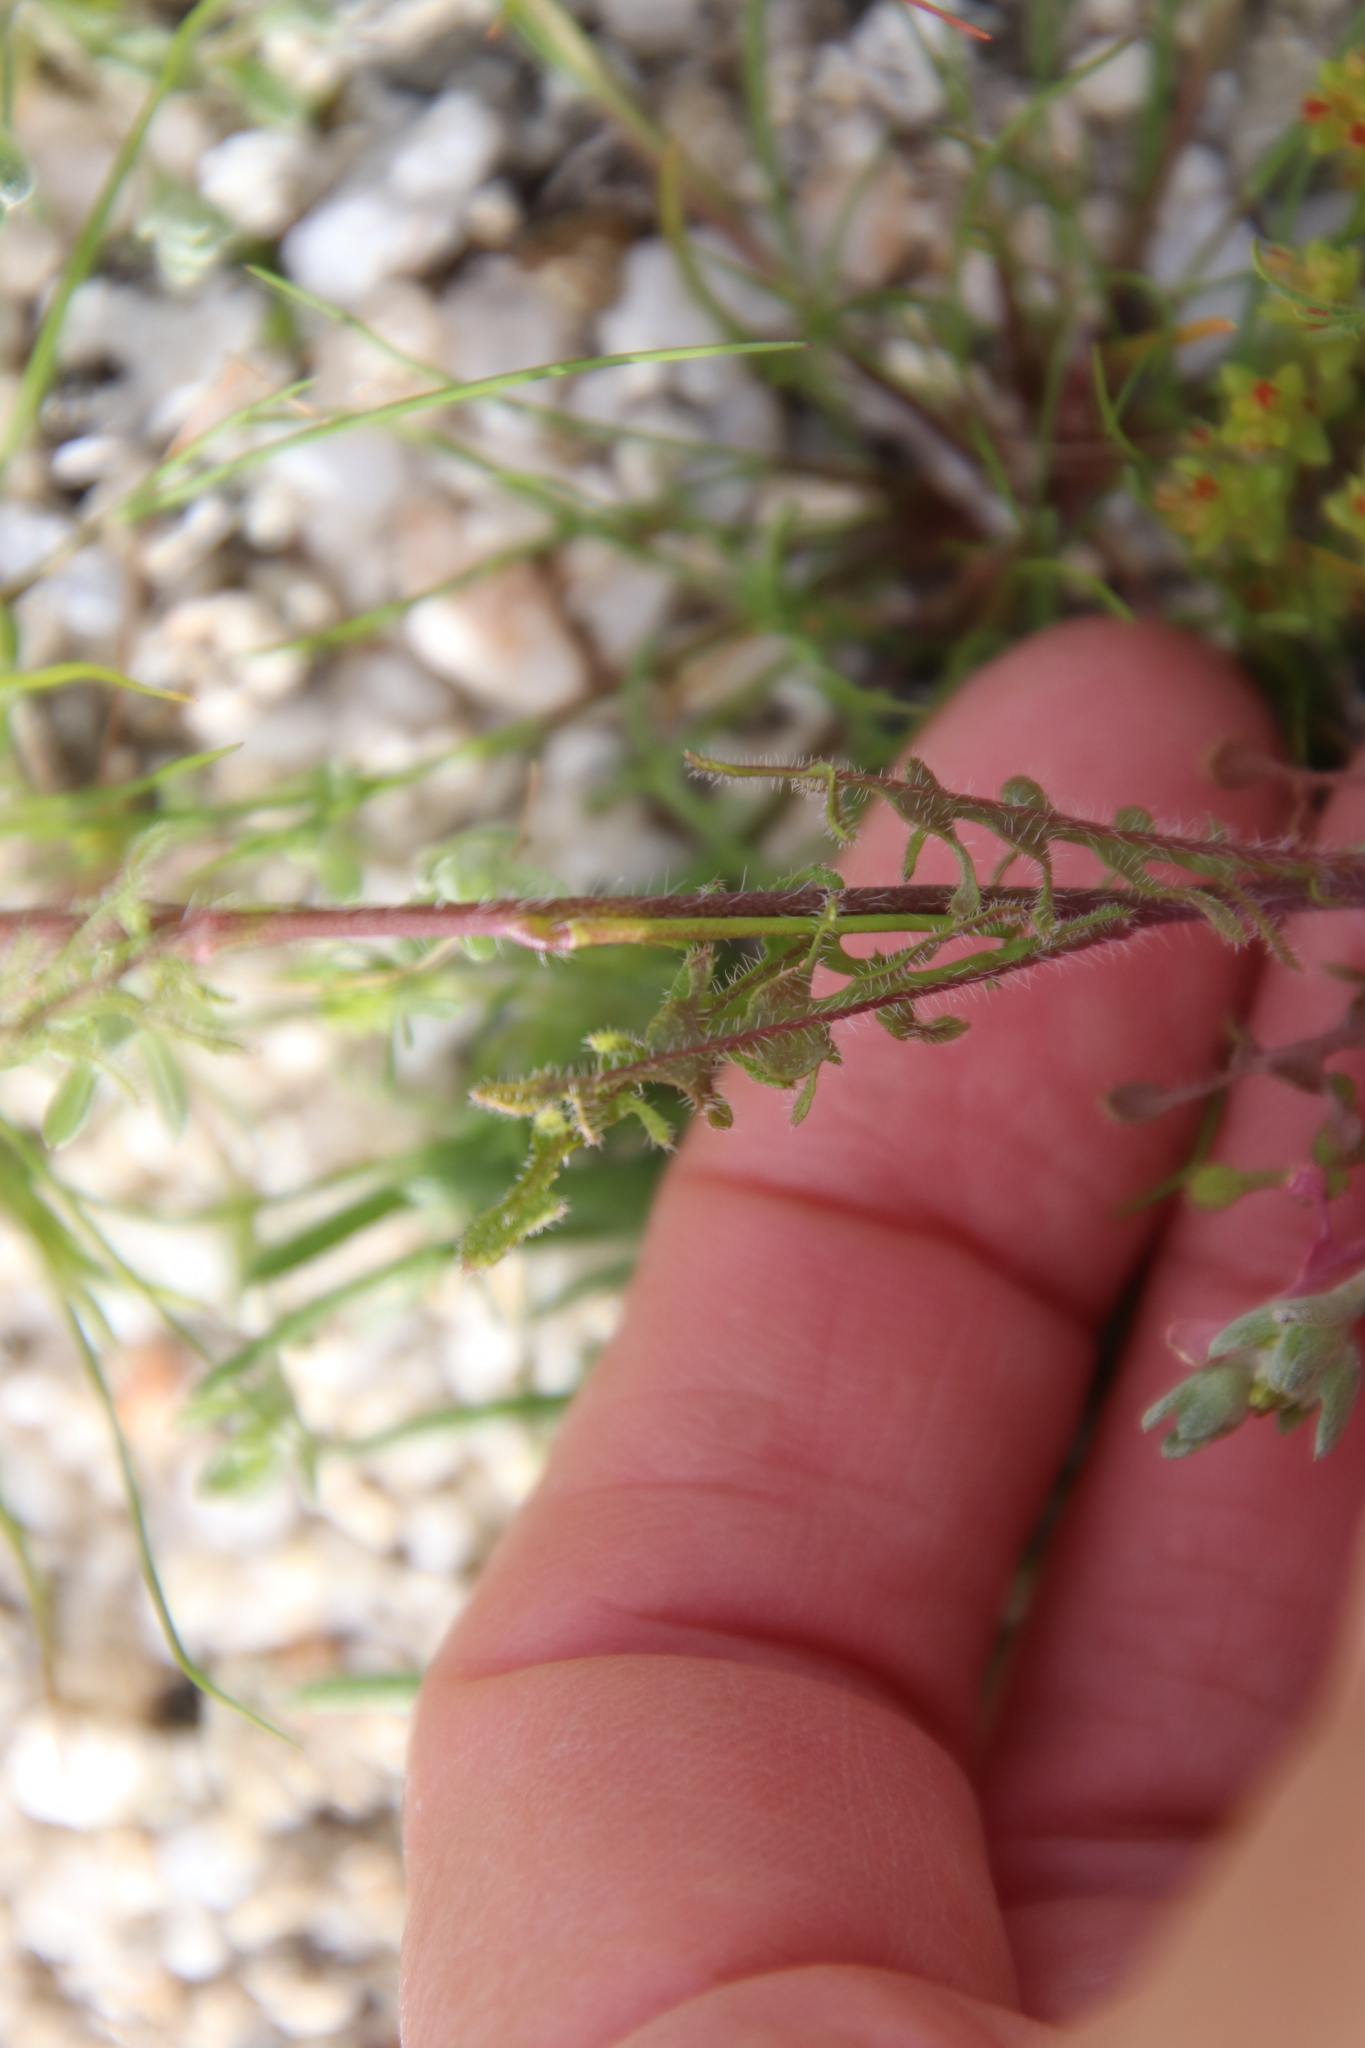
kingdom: Plantae
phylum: Tracheophyta
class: Magnoliopsida
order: Brassicales
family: Brassicaceae
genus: Streptanthus
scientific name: Streptanthus lasiophyllus
